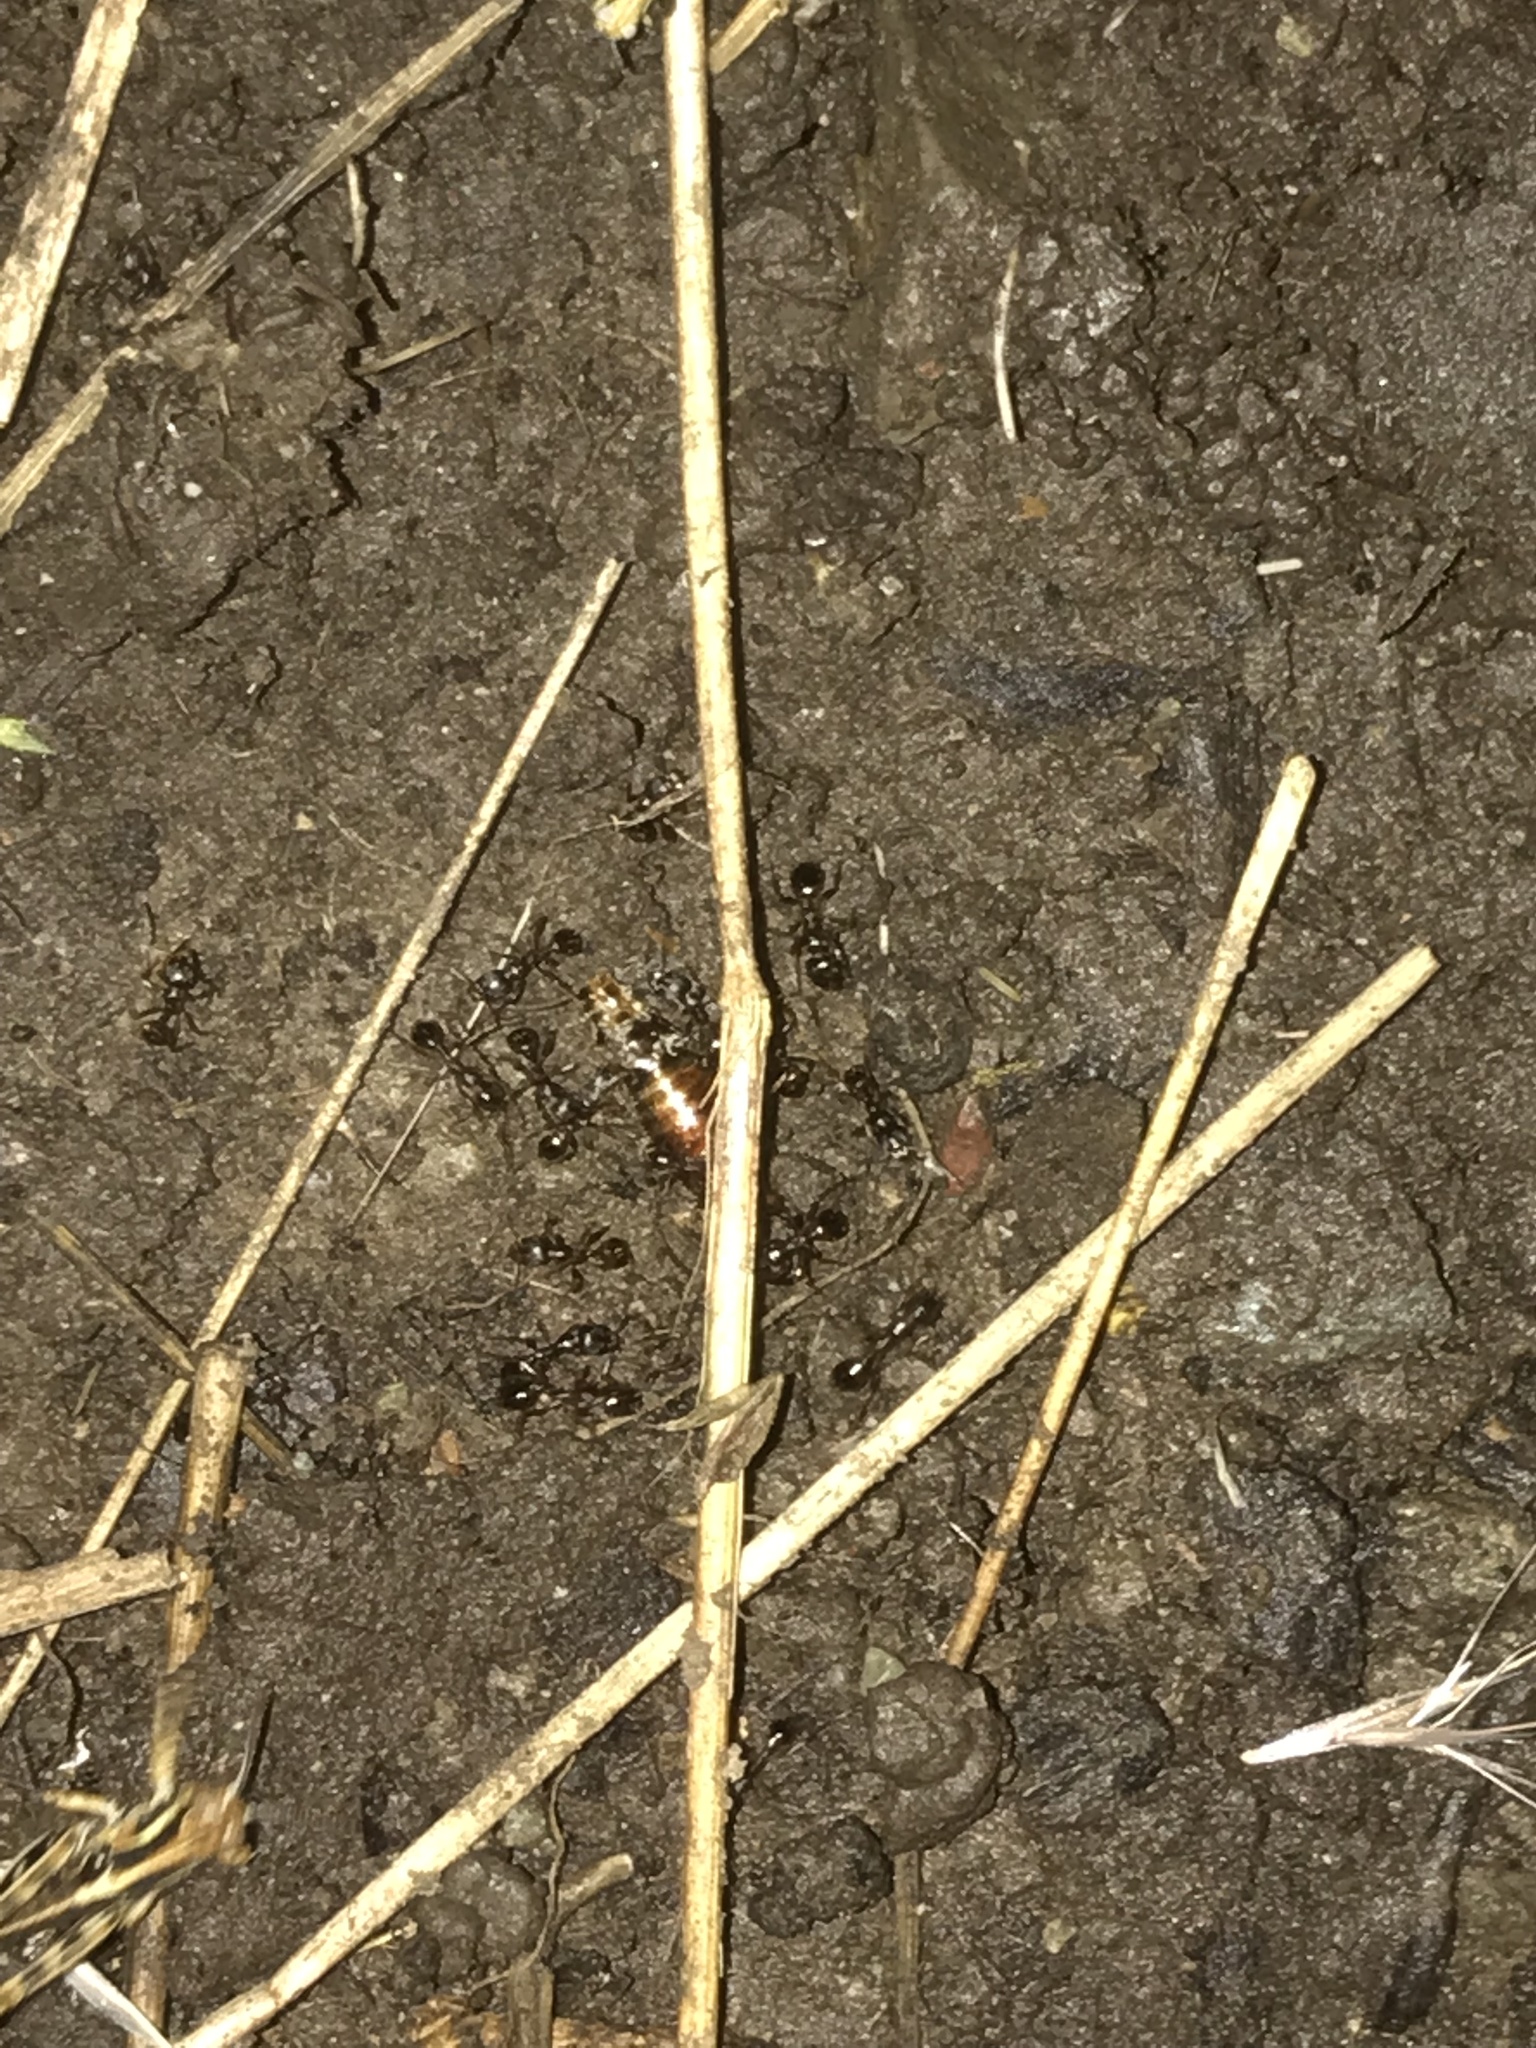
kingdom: Animalia
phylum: Arthropoda
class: Insecta
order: Hymenoptera
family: Formicidae
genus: Aphaenogaster
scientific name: Aphaenogaster occidentalis
